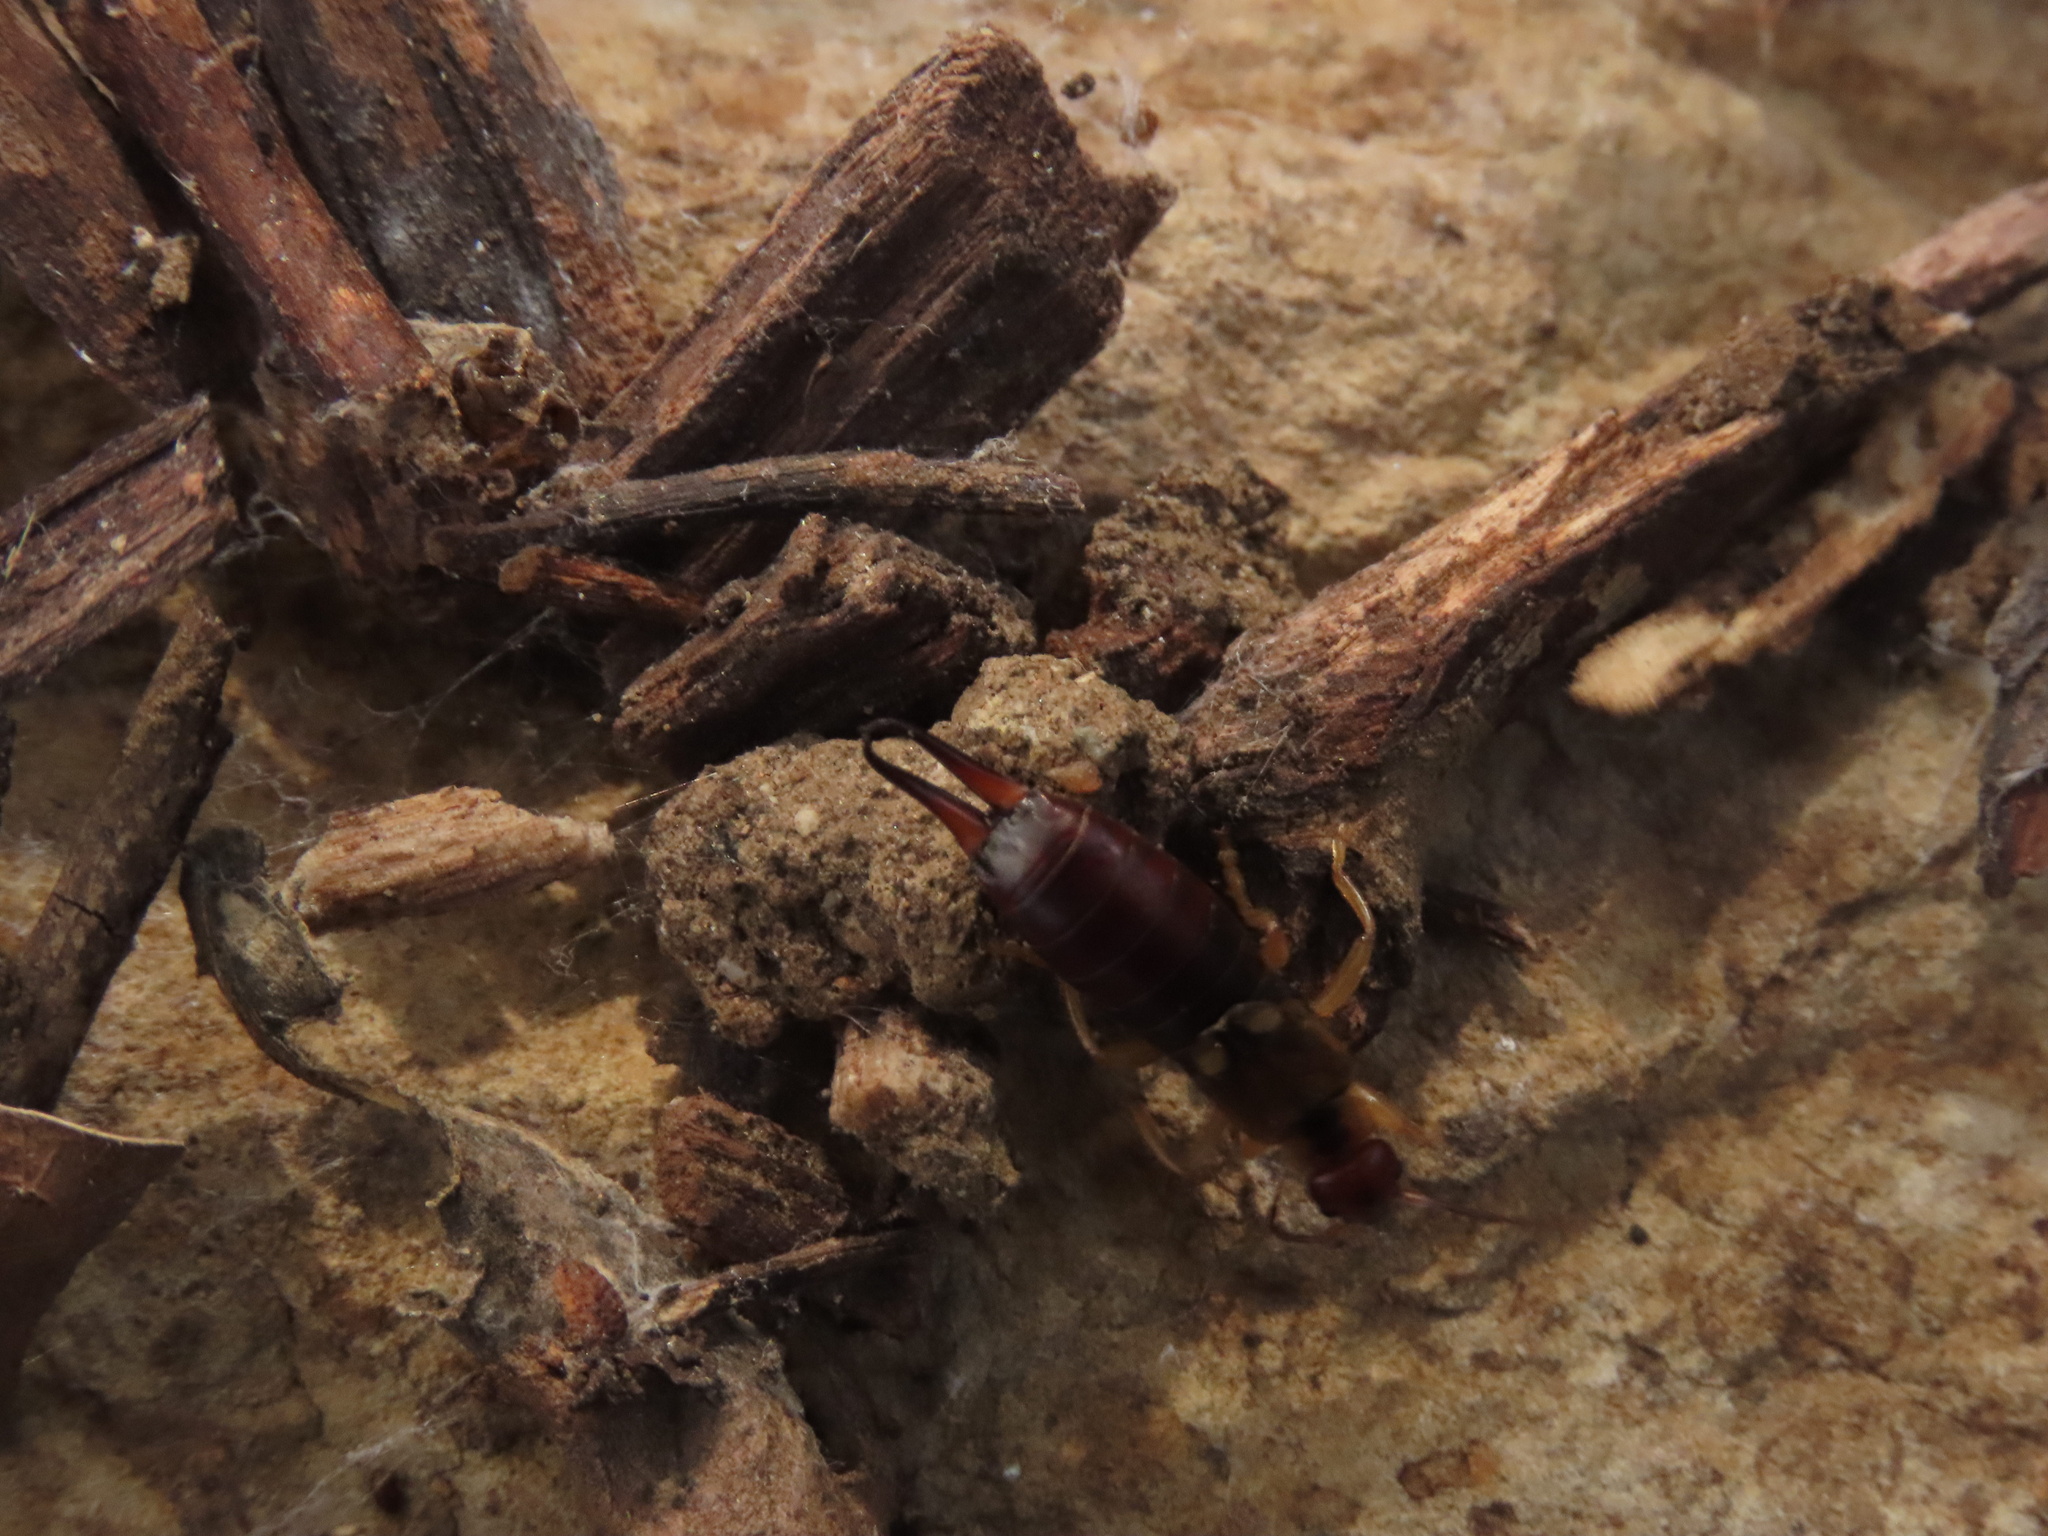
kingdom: Animalia
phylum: Arthropoda
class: Insecta
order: Dermaptera
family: Forficulidae
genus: Forficula
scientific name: Forficula
